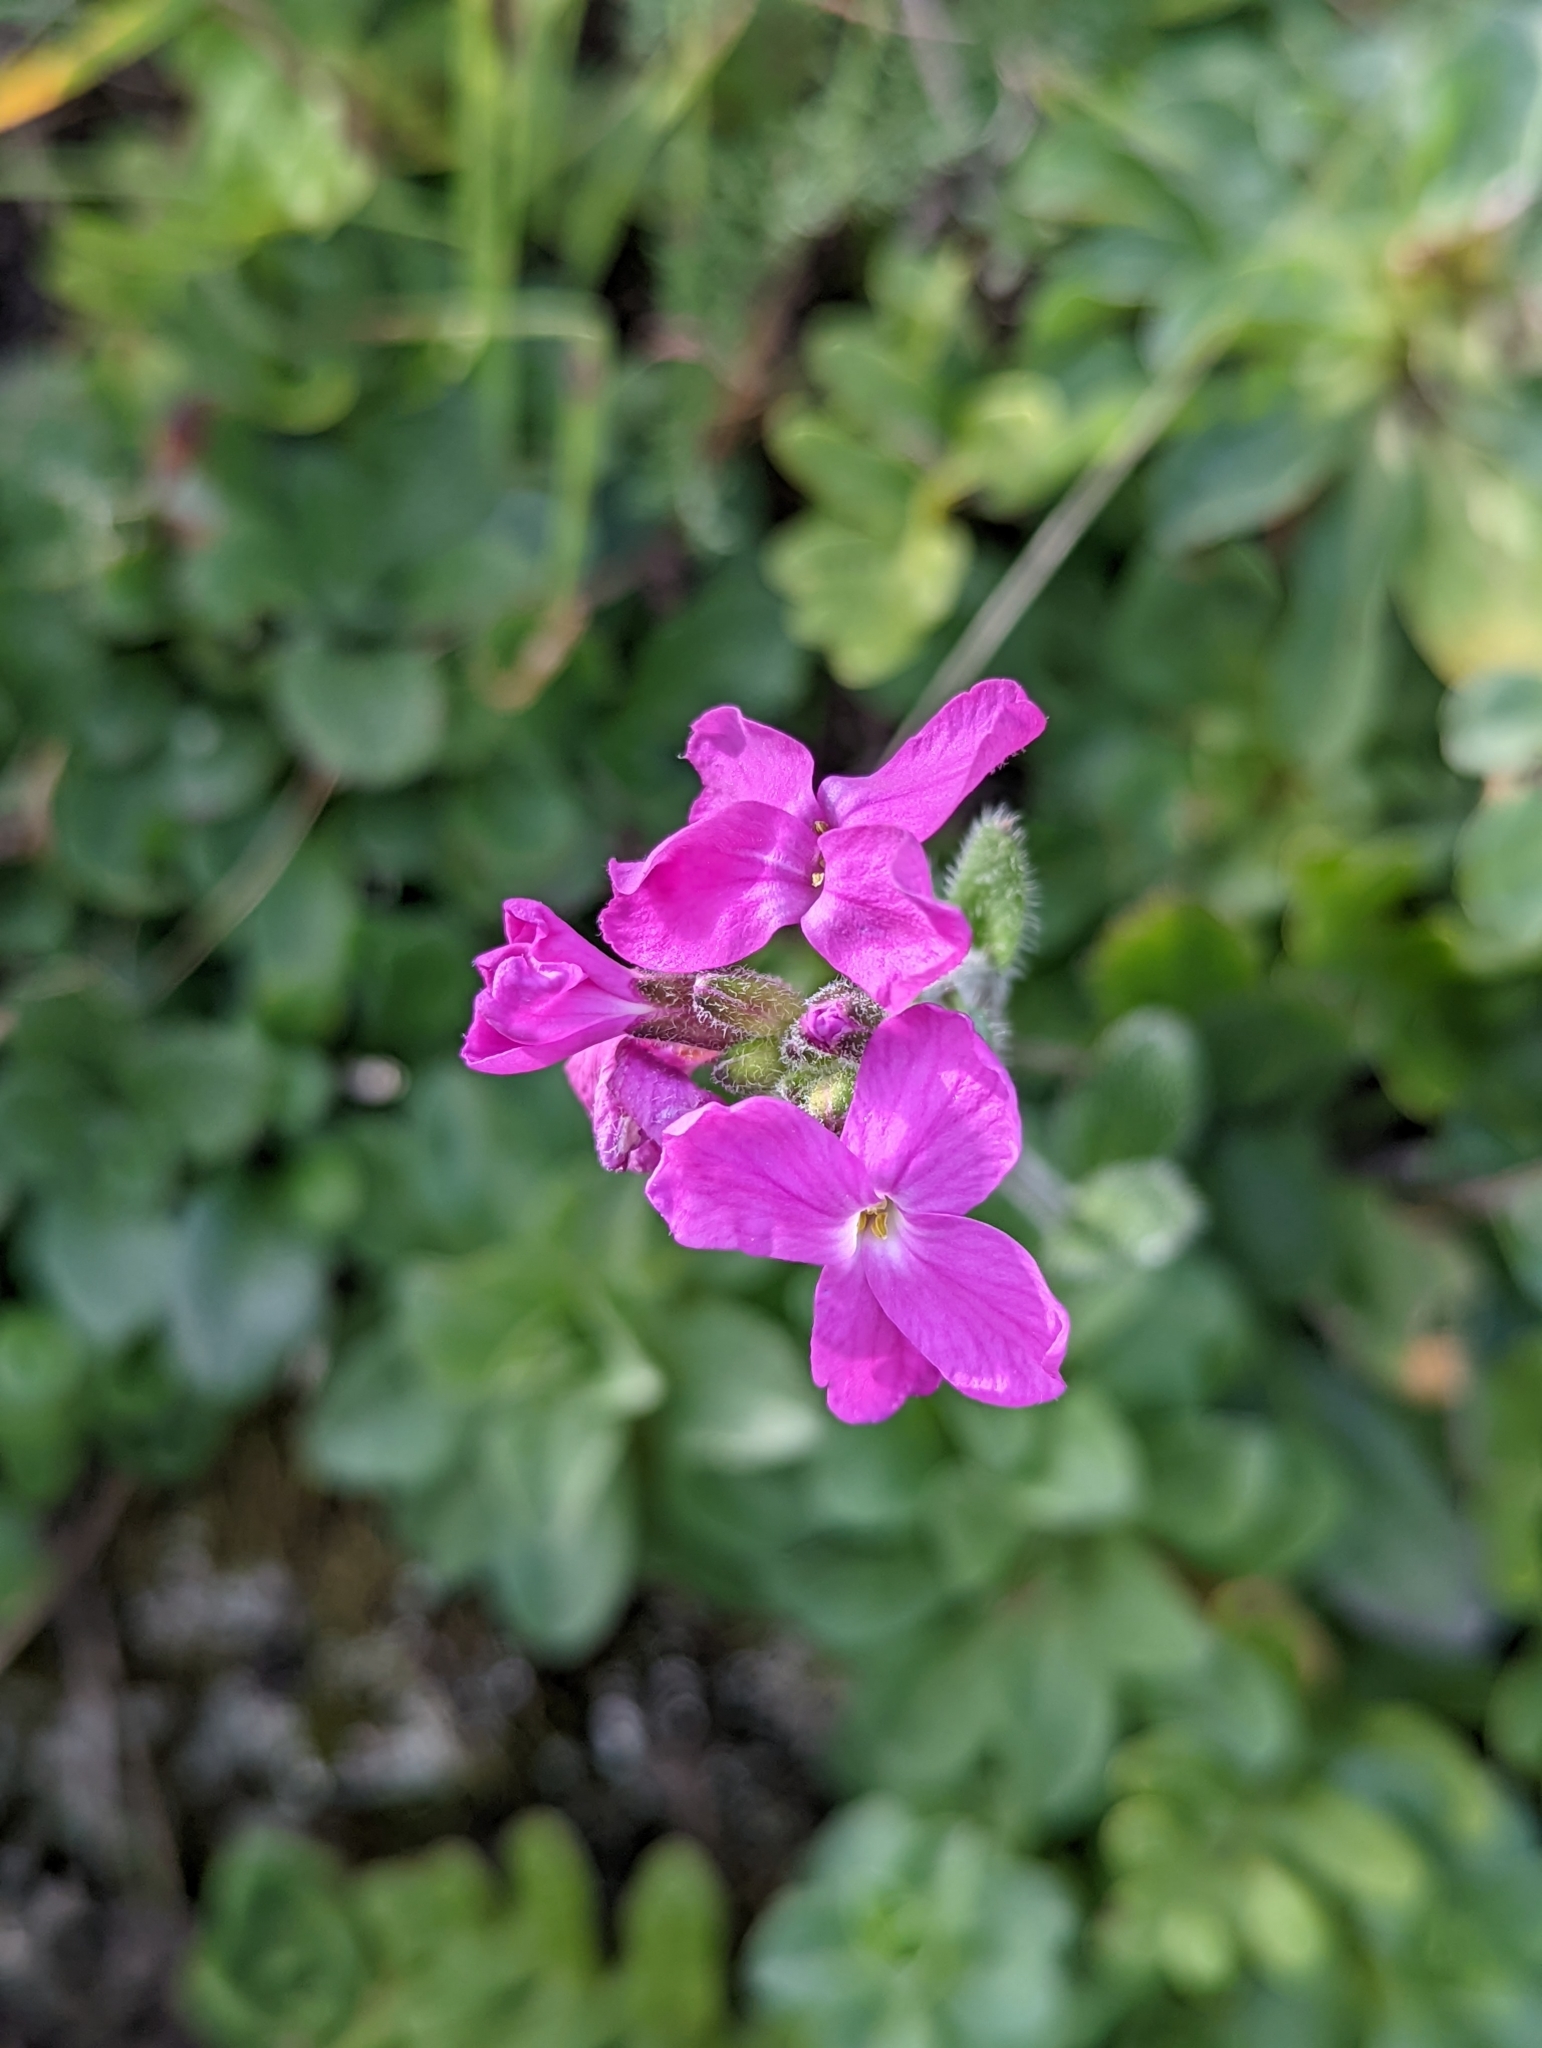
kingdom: Plantae
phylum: Tracheophyta
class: Magnoliopsida
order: Brassicales
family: Brassicaceae
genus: Arabis
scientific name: Arabis blepharophylla
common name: Rose rockcress
